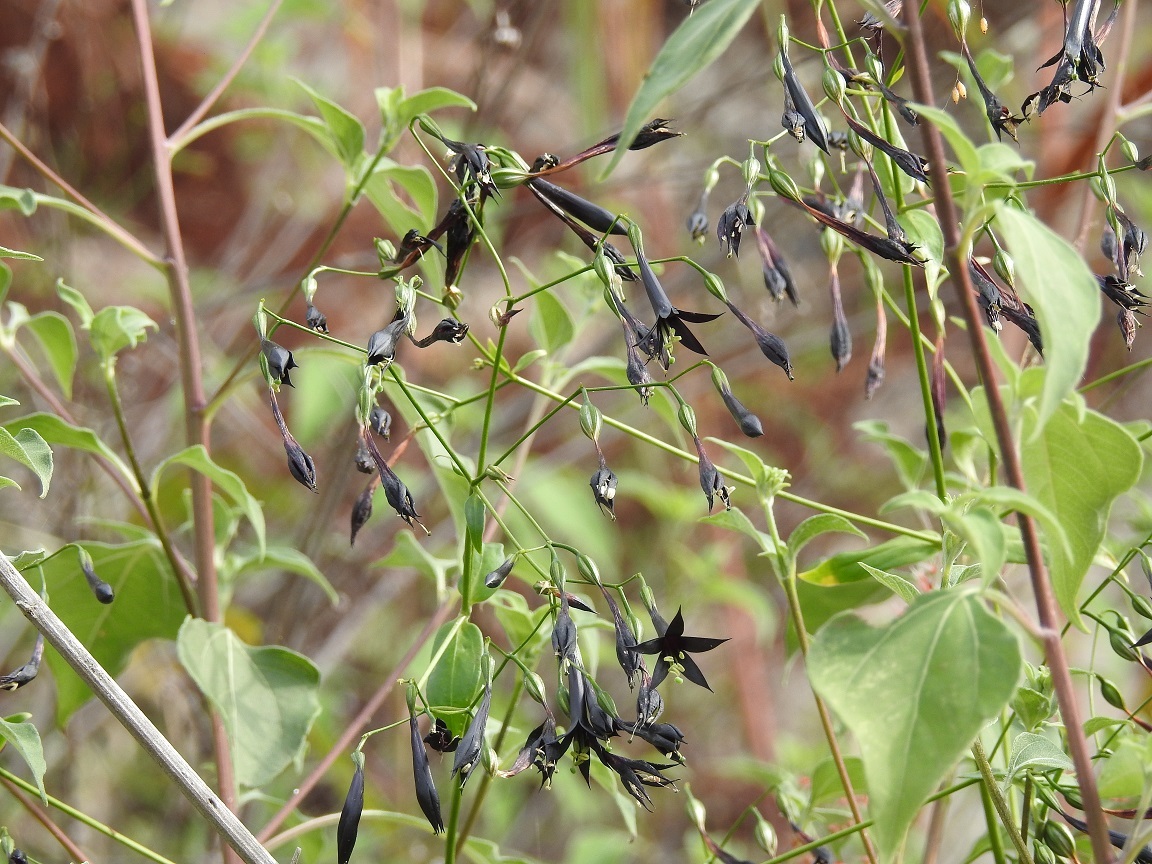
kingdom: Plantae
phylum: Tracheophyta
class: Magnoliopsida
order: Gentianales
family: Gentianaceae
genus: Lisianthus
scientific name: Lisianthus nigrescens
